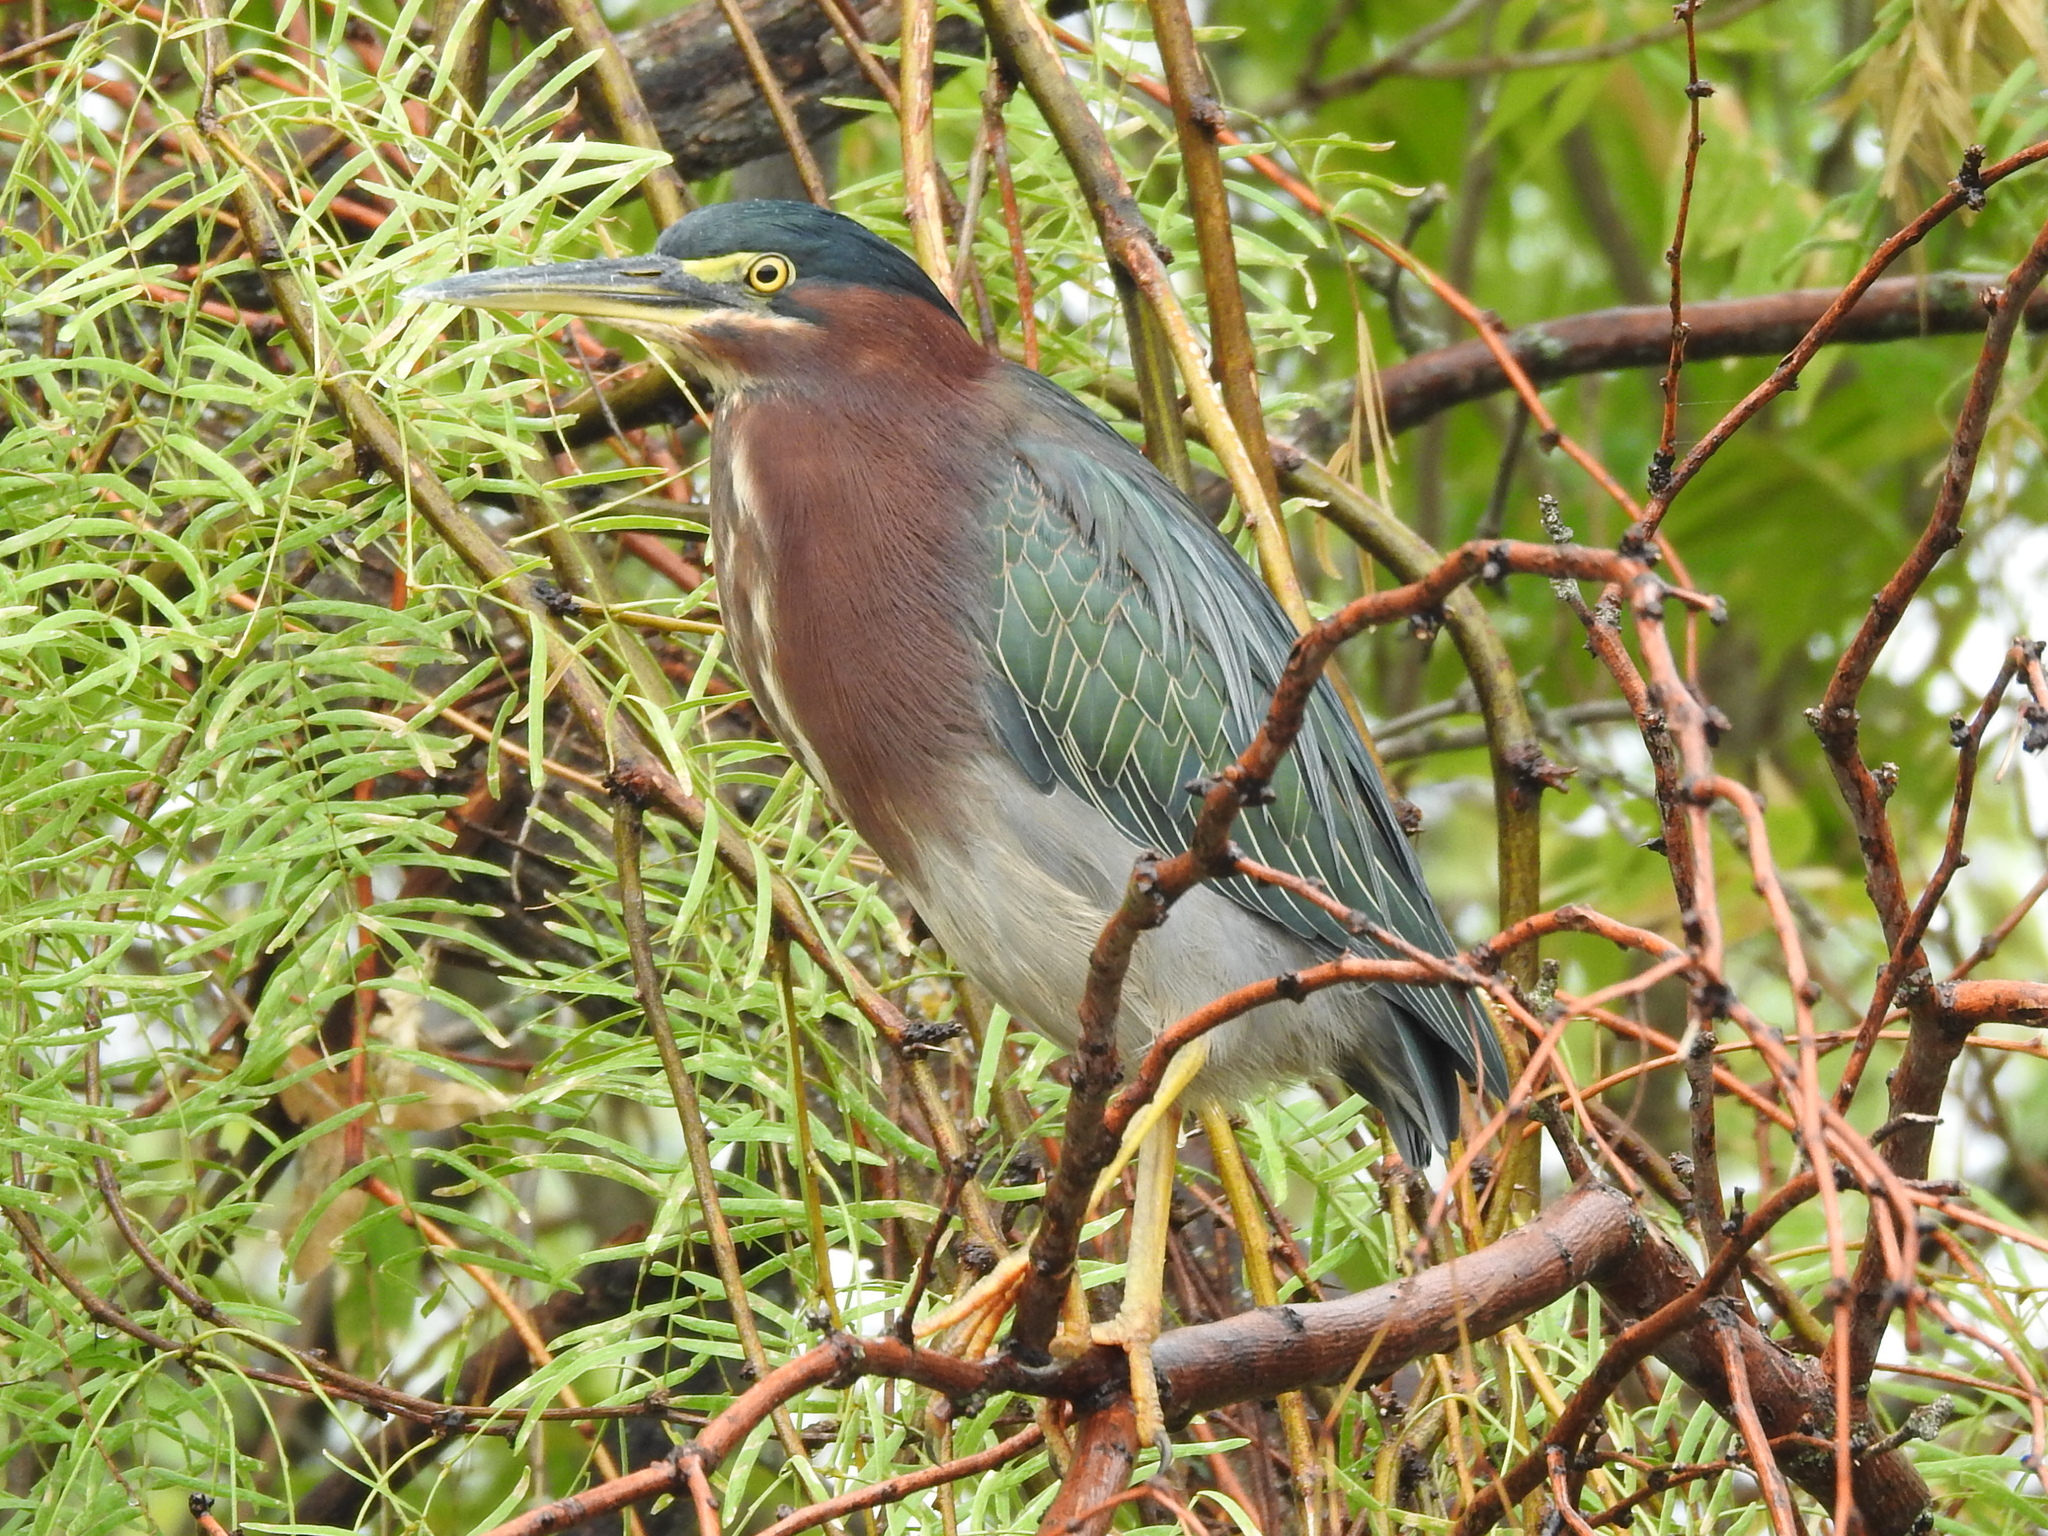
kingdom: Animalia
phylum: Chordata
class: Aves
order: Pelecaniformes
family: Ardeidae
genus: Butorides
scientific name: Butorides virescens
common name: Green heron
